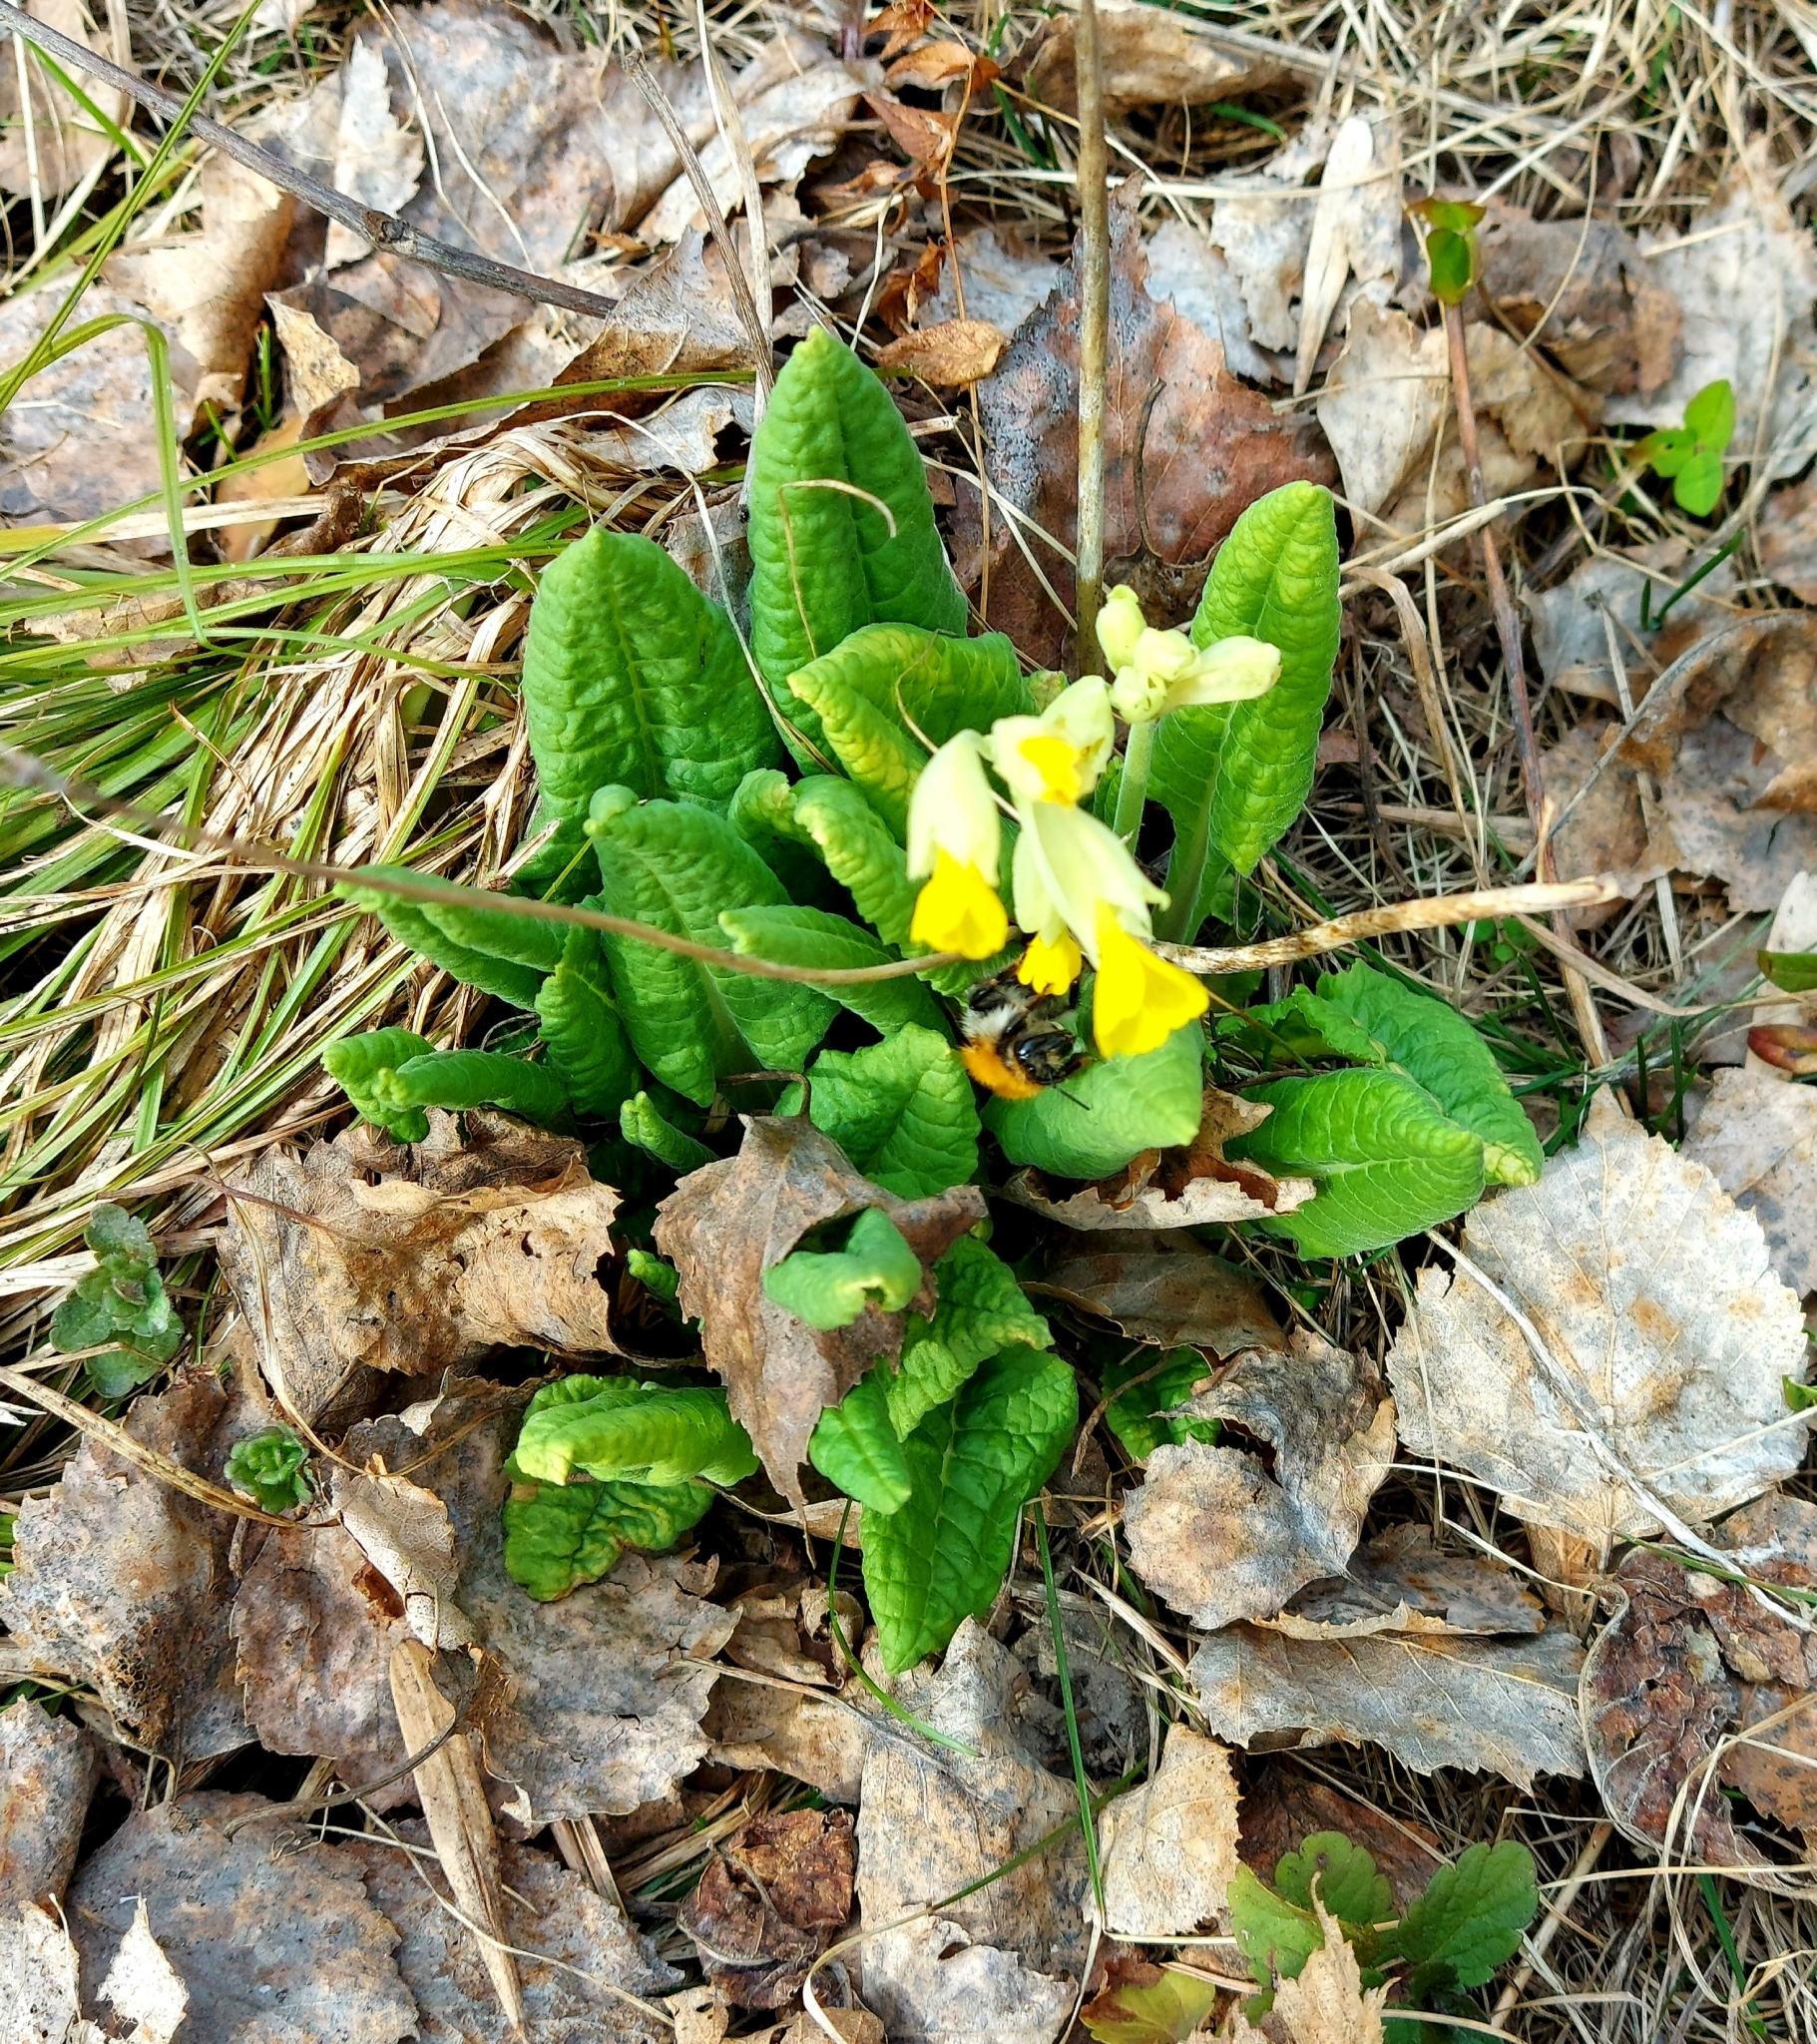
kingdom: Plantae
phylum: Tracheophyta
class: Magnoliopsida
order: Ericales
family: Primulaceae
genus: Primula
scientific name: Primula veris
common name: Cowslip
